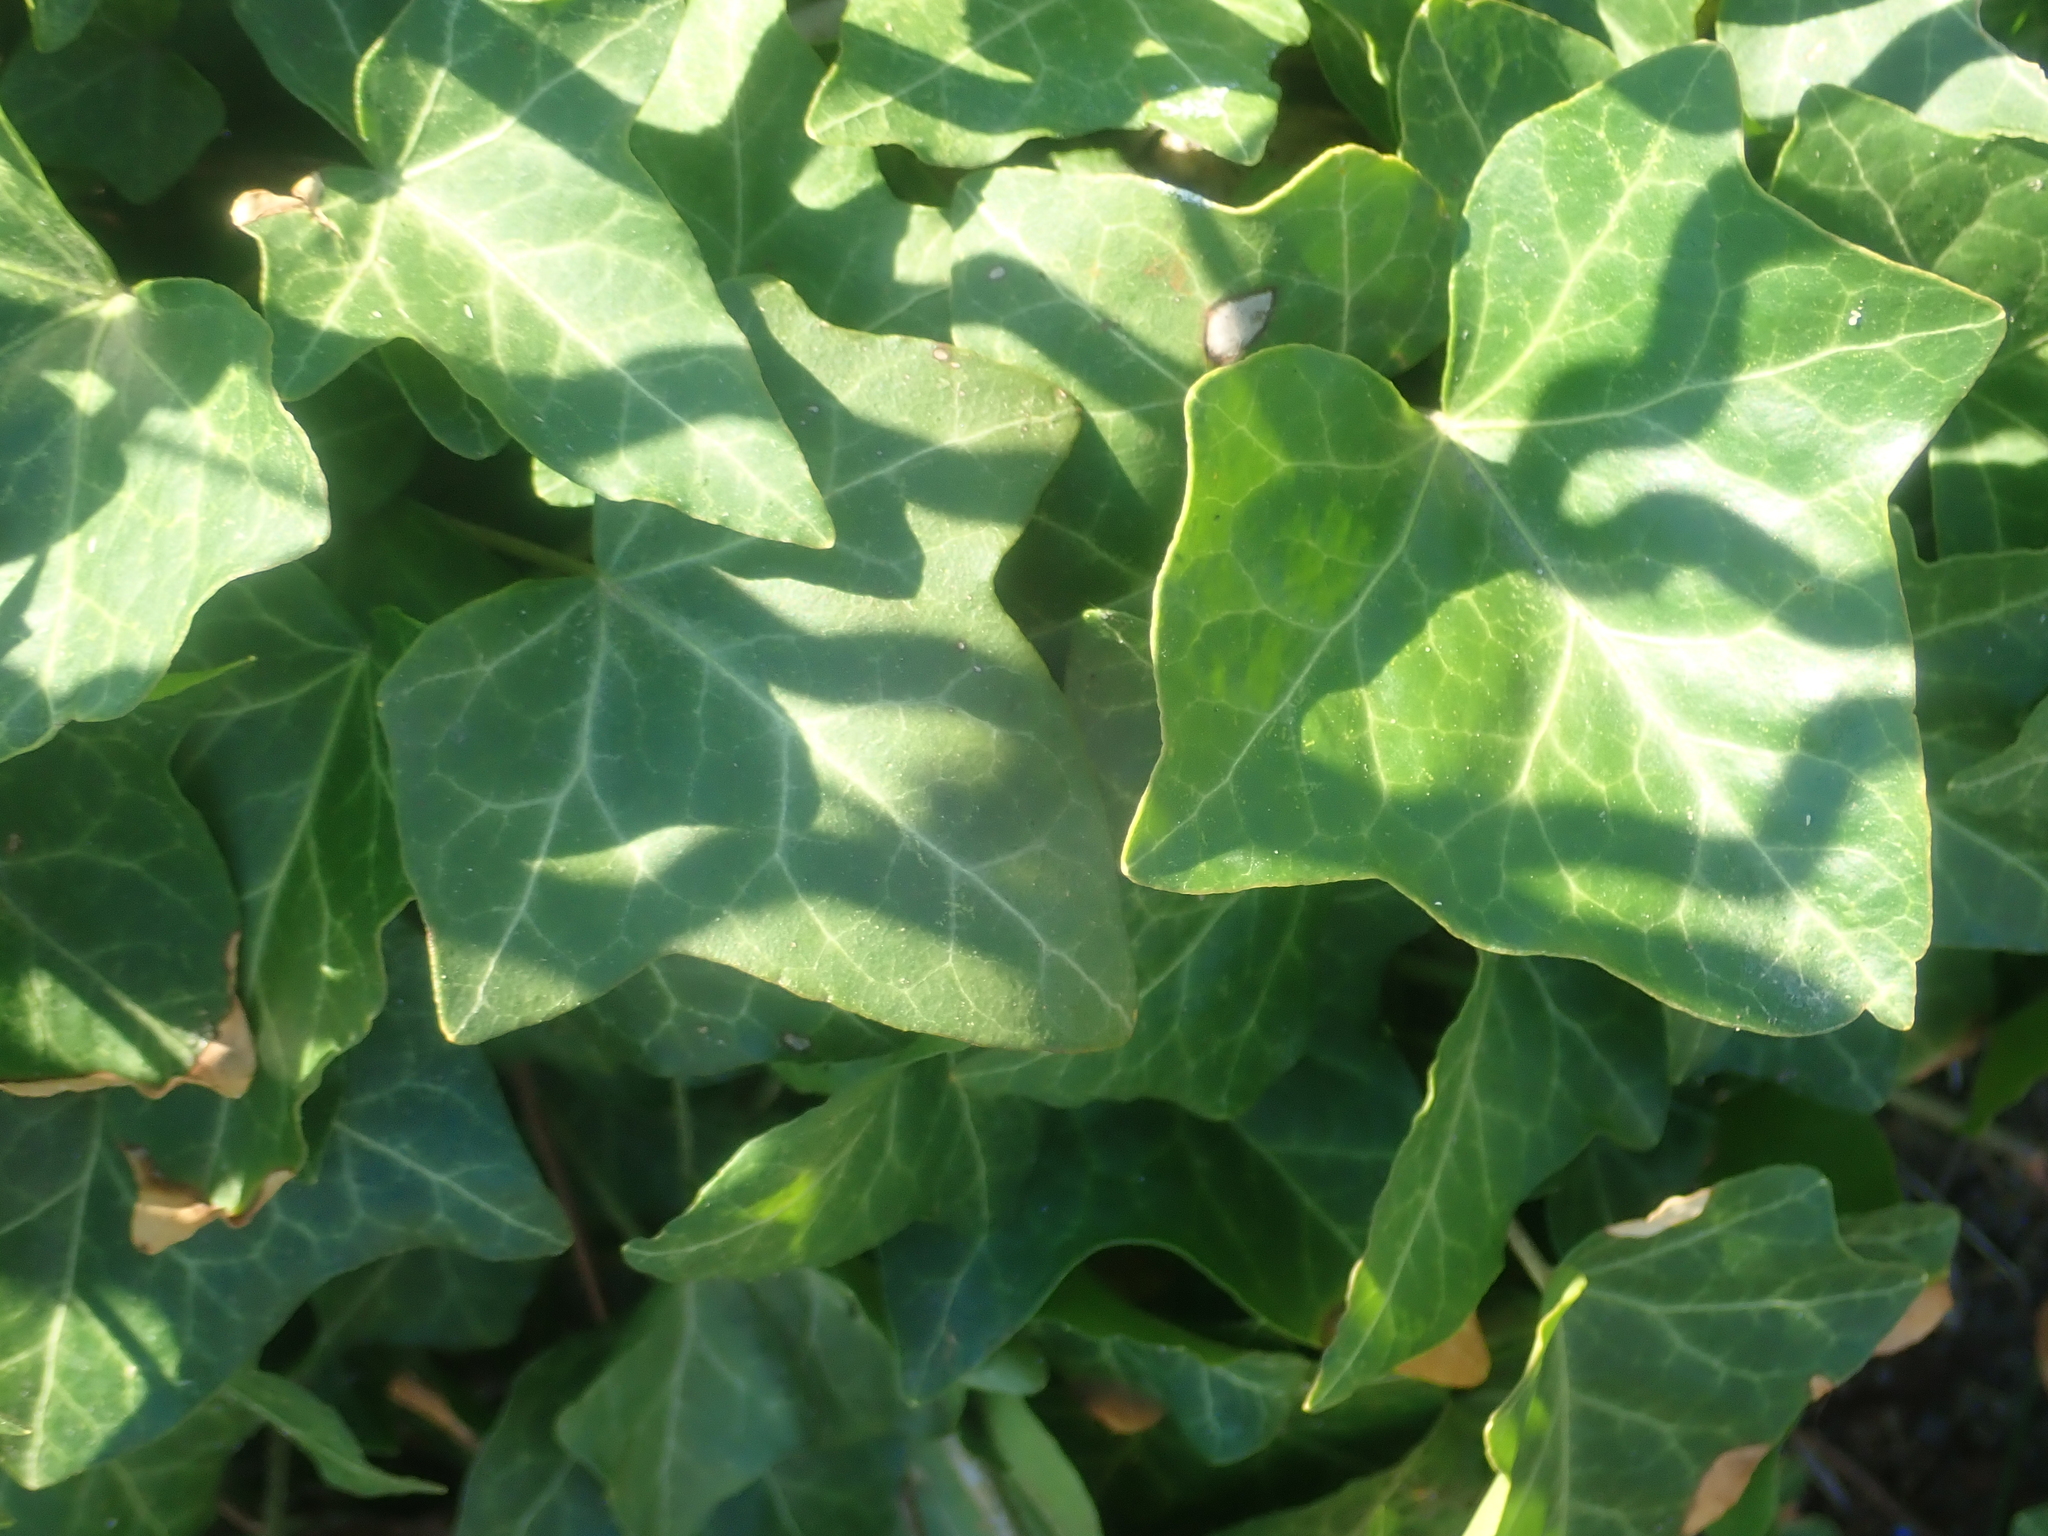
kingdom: Plantae
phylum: Tracheophyta
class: Magnoliopsida
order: Apiales
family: Araliaceae
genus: Hedera
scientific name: Hedera helix
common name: Ivy
